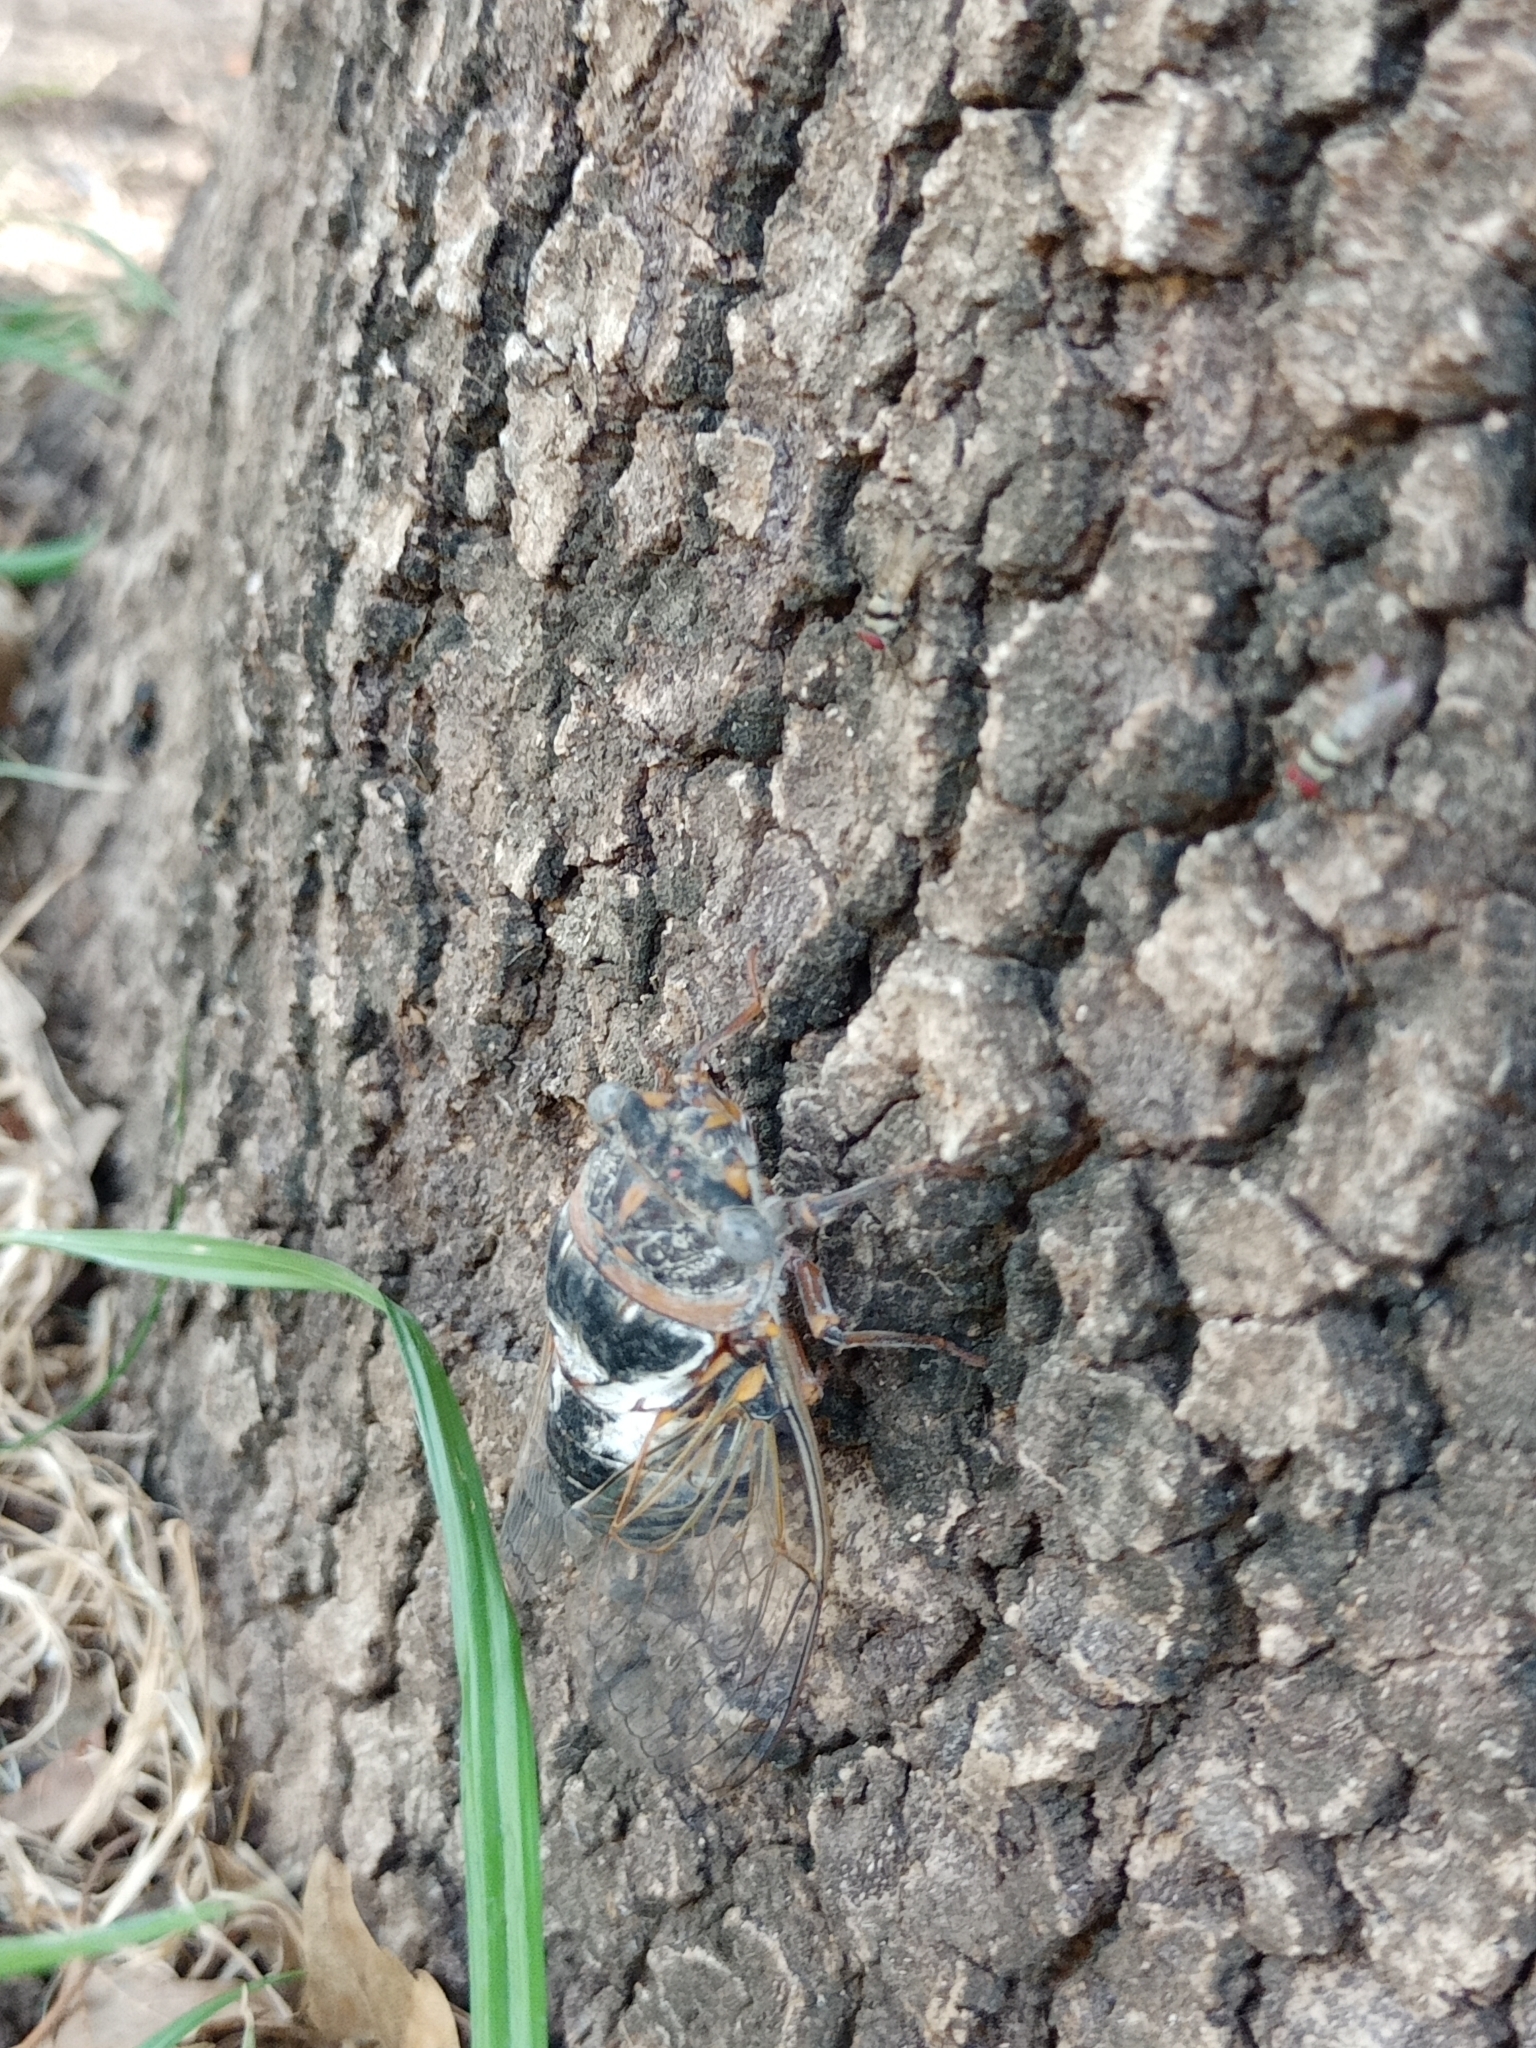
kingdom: Animalia
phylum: Arthropoda
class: Insecta
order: Hemiptera
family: Cicadidae
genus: Lyristes
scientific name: Lyristes gemellus
